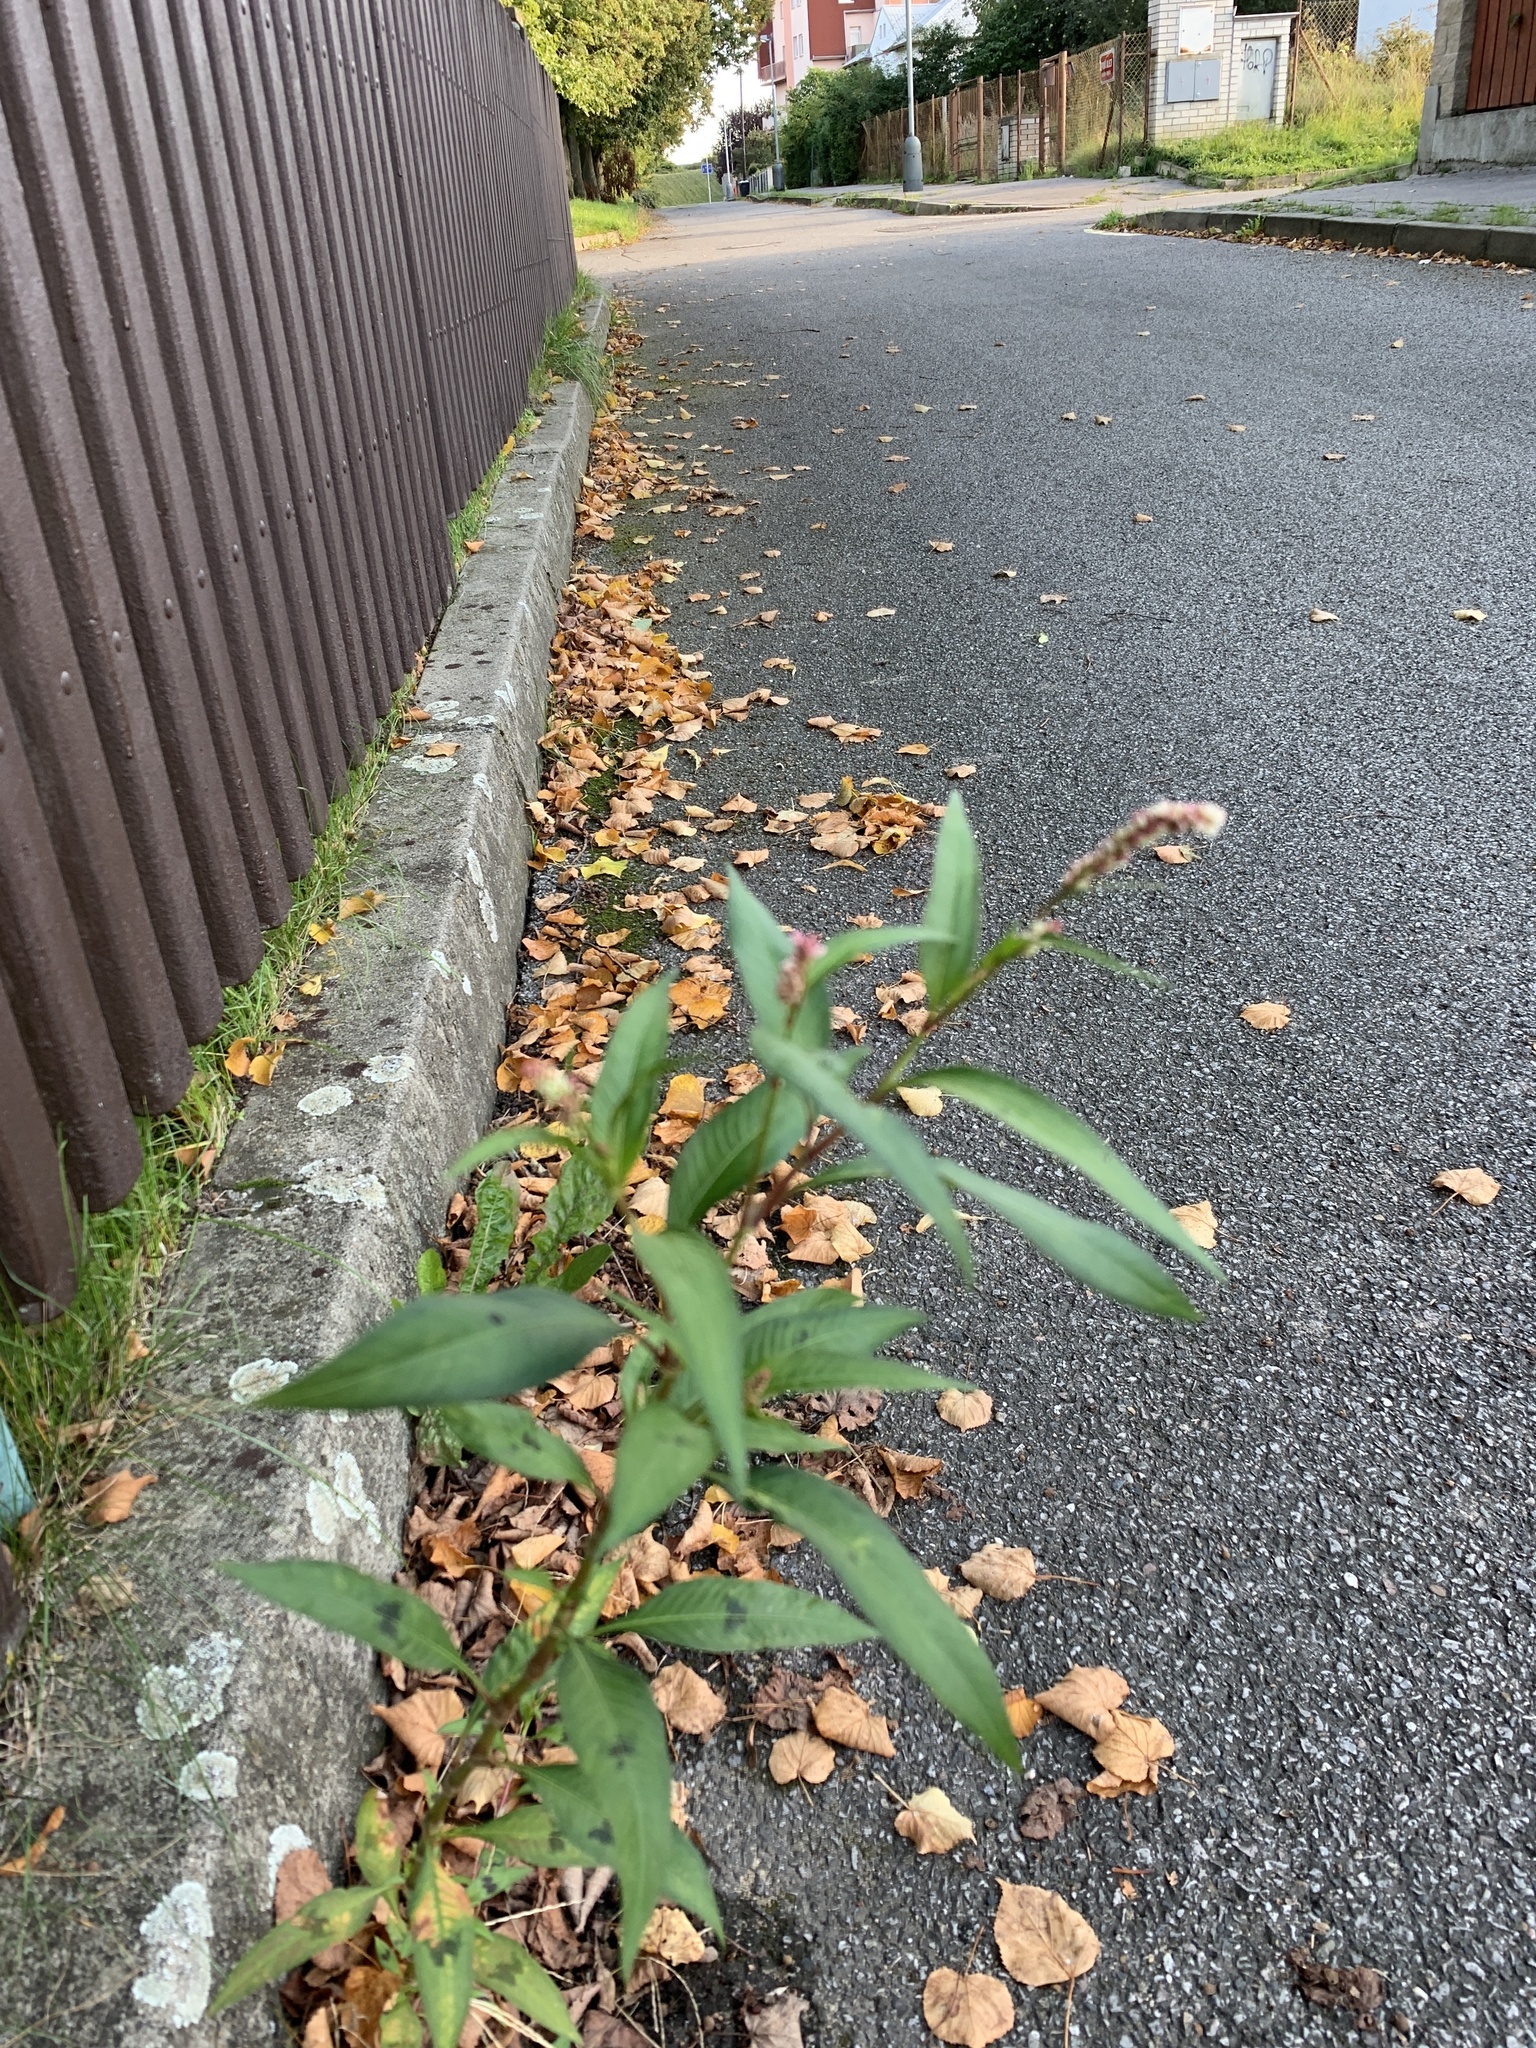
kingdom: Plantae
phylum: Tracheophyta
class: Magnoliopsida
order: Caryophyllales
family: Polygonaceae
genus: Persicaria
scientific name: Persicaria maculosa
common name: Redshank
